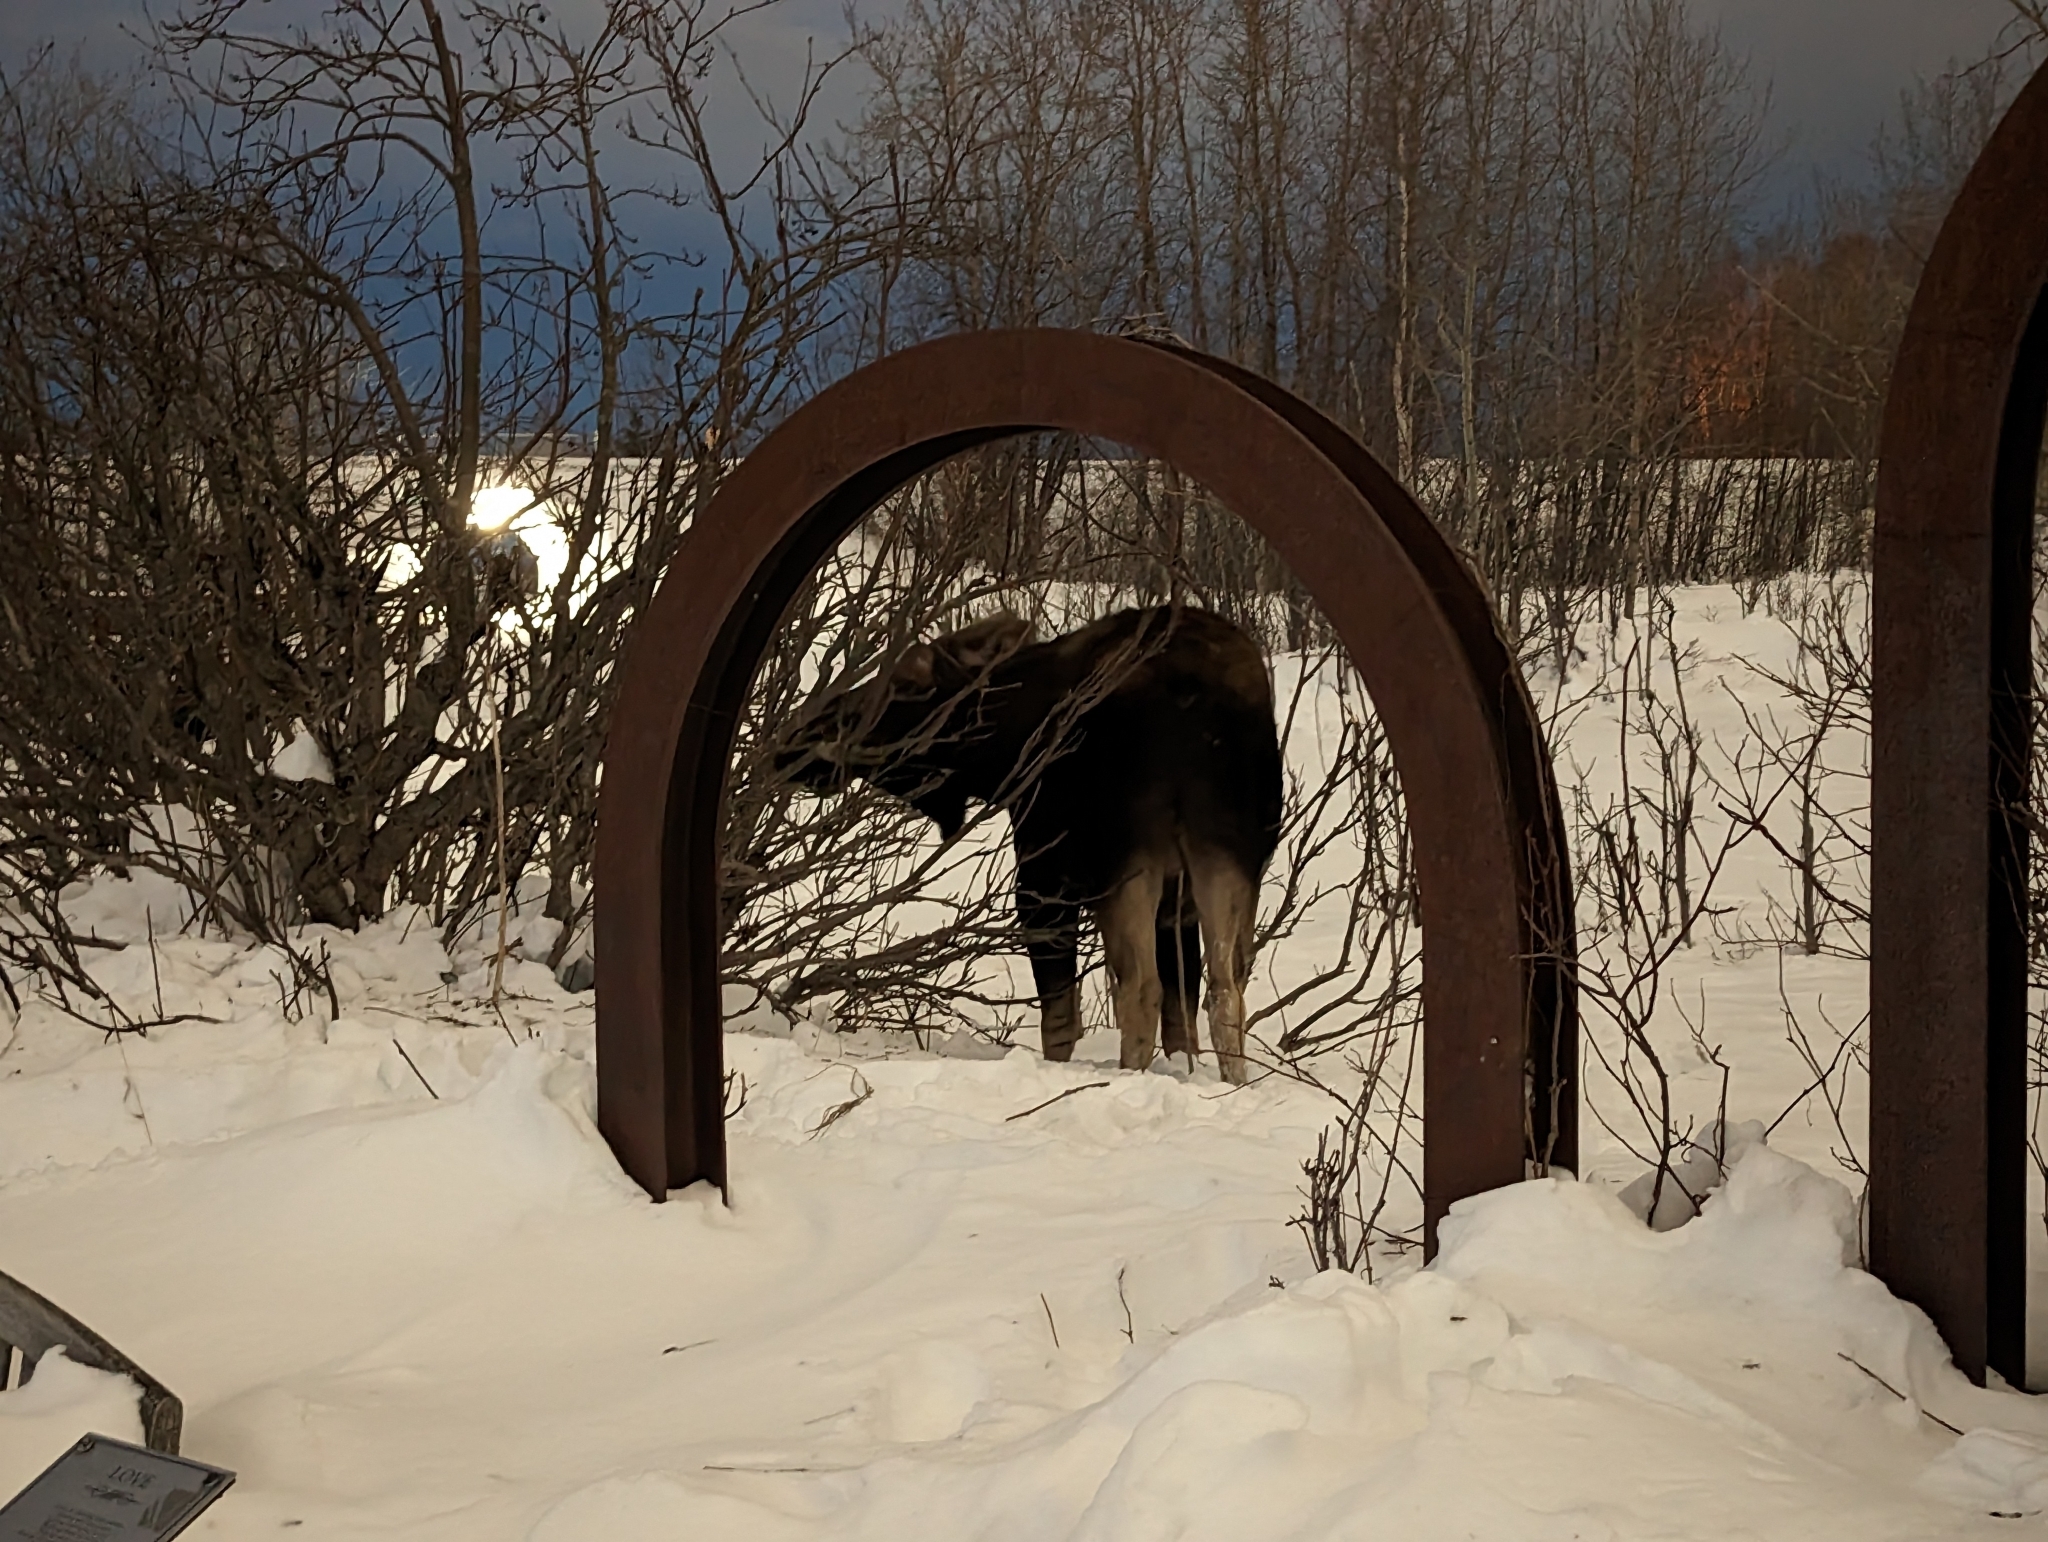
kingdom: Animalia
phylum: Chordata
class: Mammalia
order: Artiodactyla
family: Cervidae
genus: Alces
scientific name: Alces alces
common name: Moose
